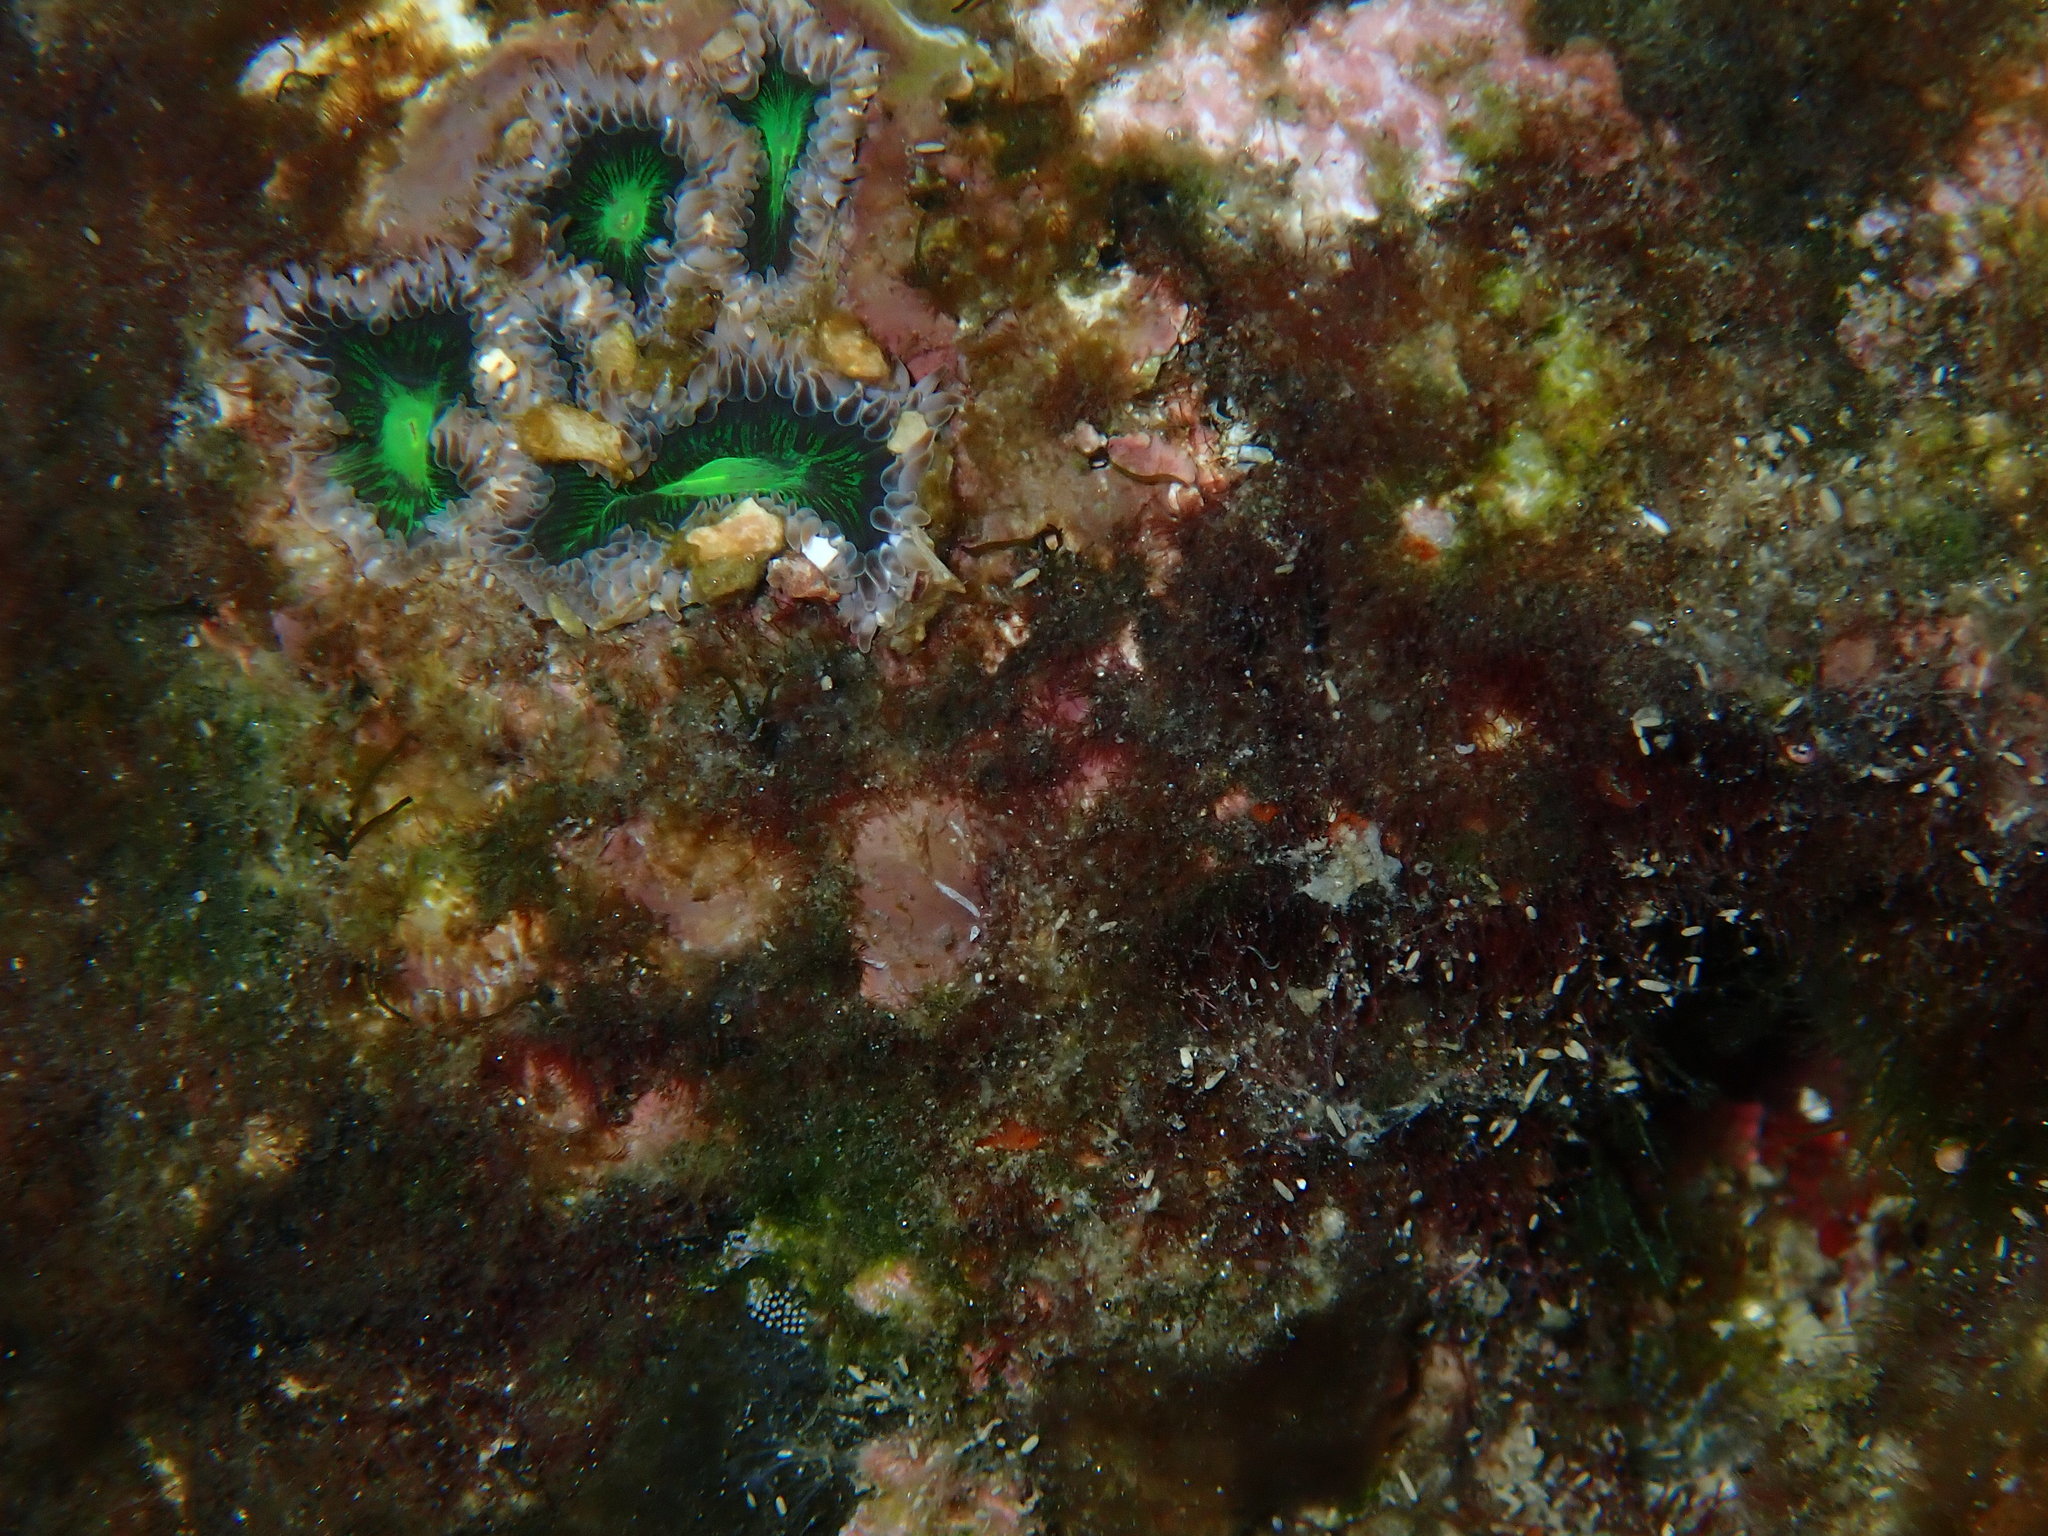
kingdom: Animalia
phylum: Cnidaria
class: Anthozoa
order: Actiniaria
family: Actiniidae
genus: Gyractis
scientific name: Gyractis sesere
